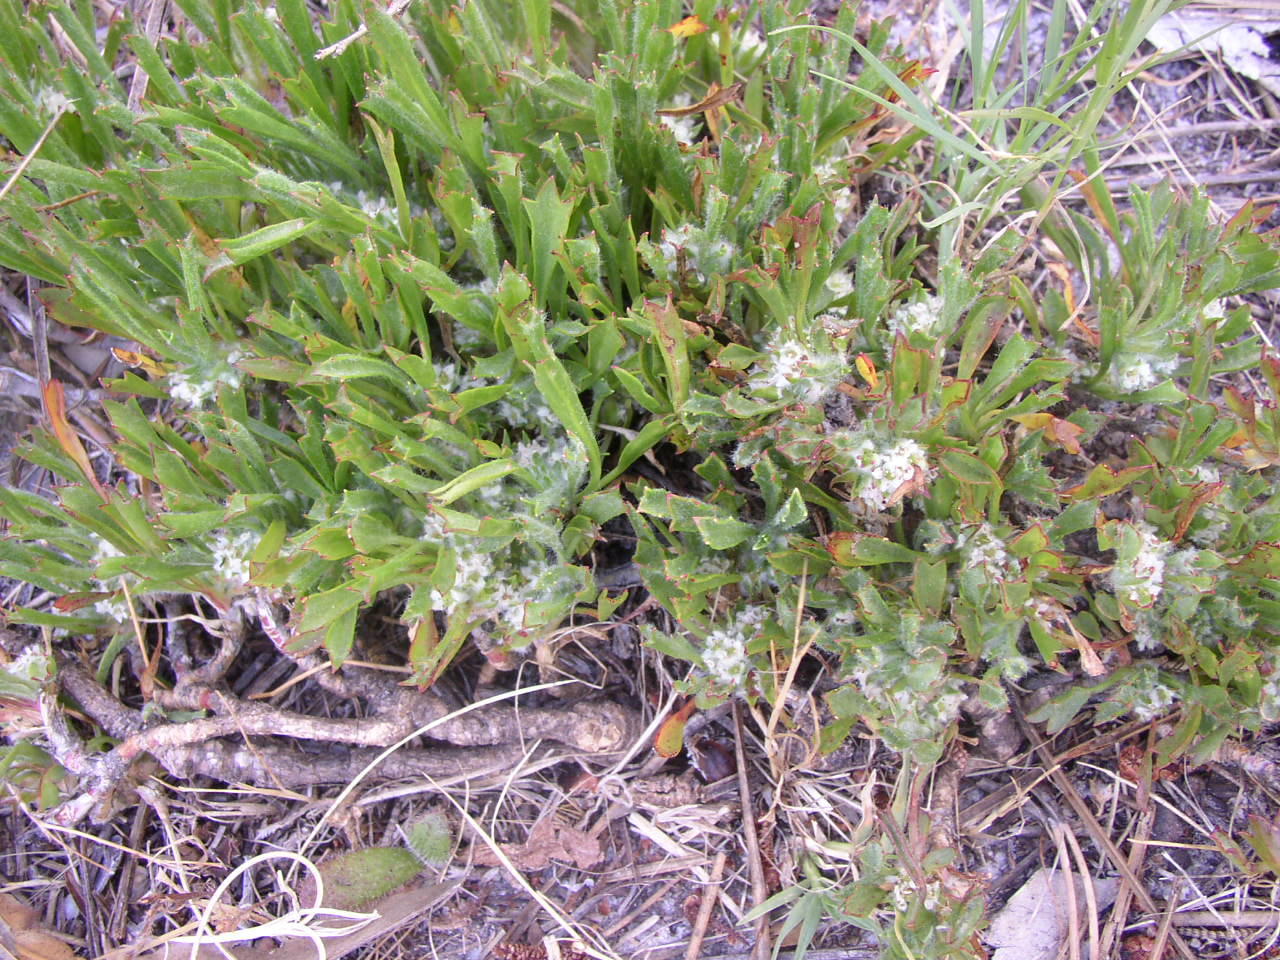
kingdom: Plantae
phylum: Tracheophyta
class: Magnoliopsida
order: Apiales
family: Apiaceae
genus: Centella
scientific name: Centella tridentata
